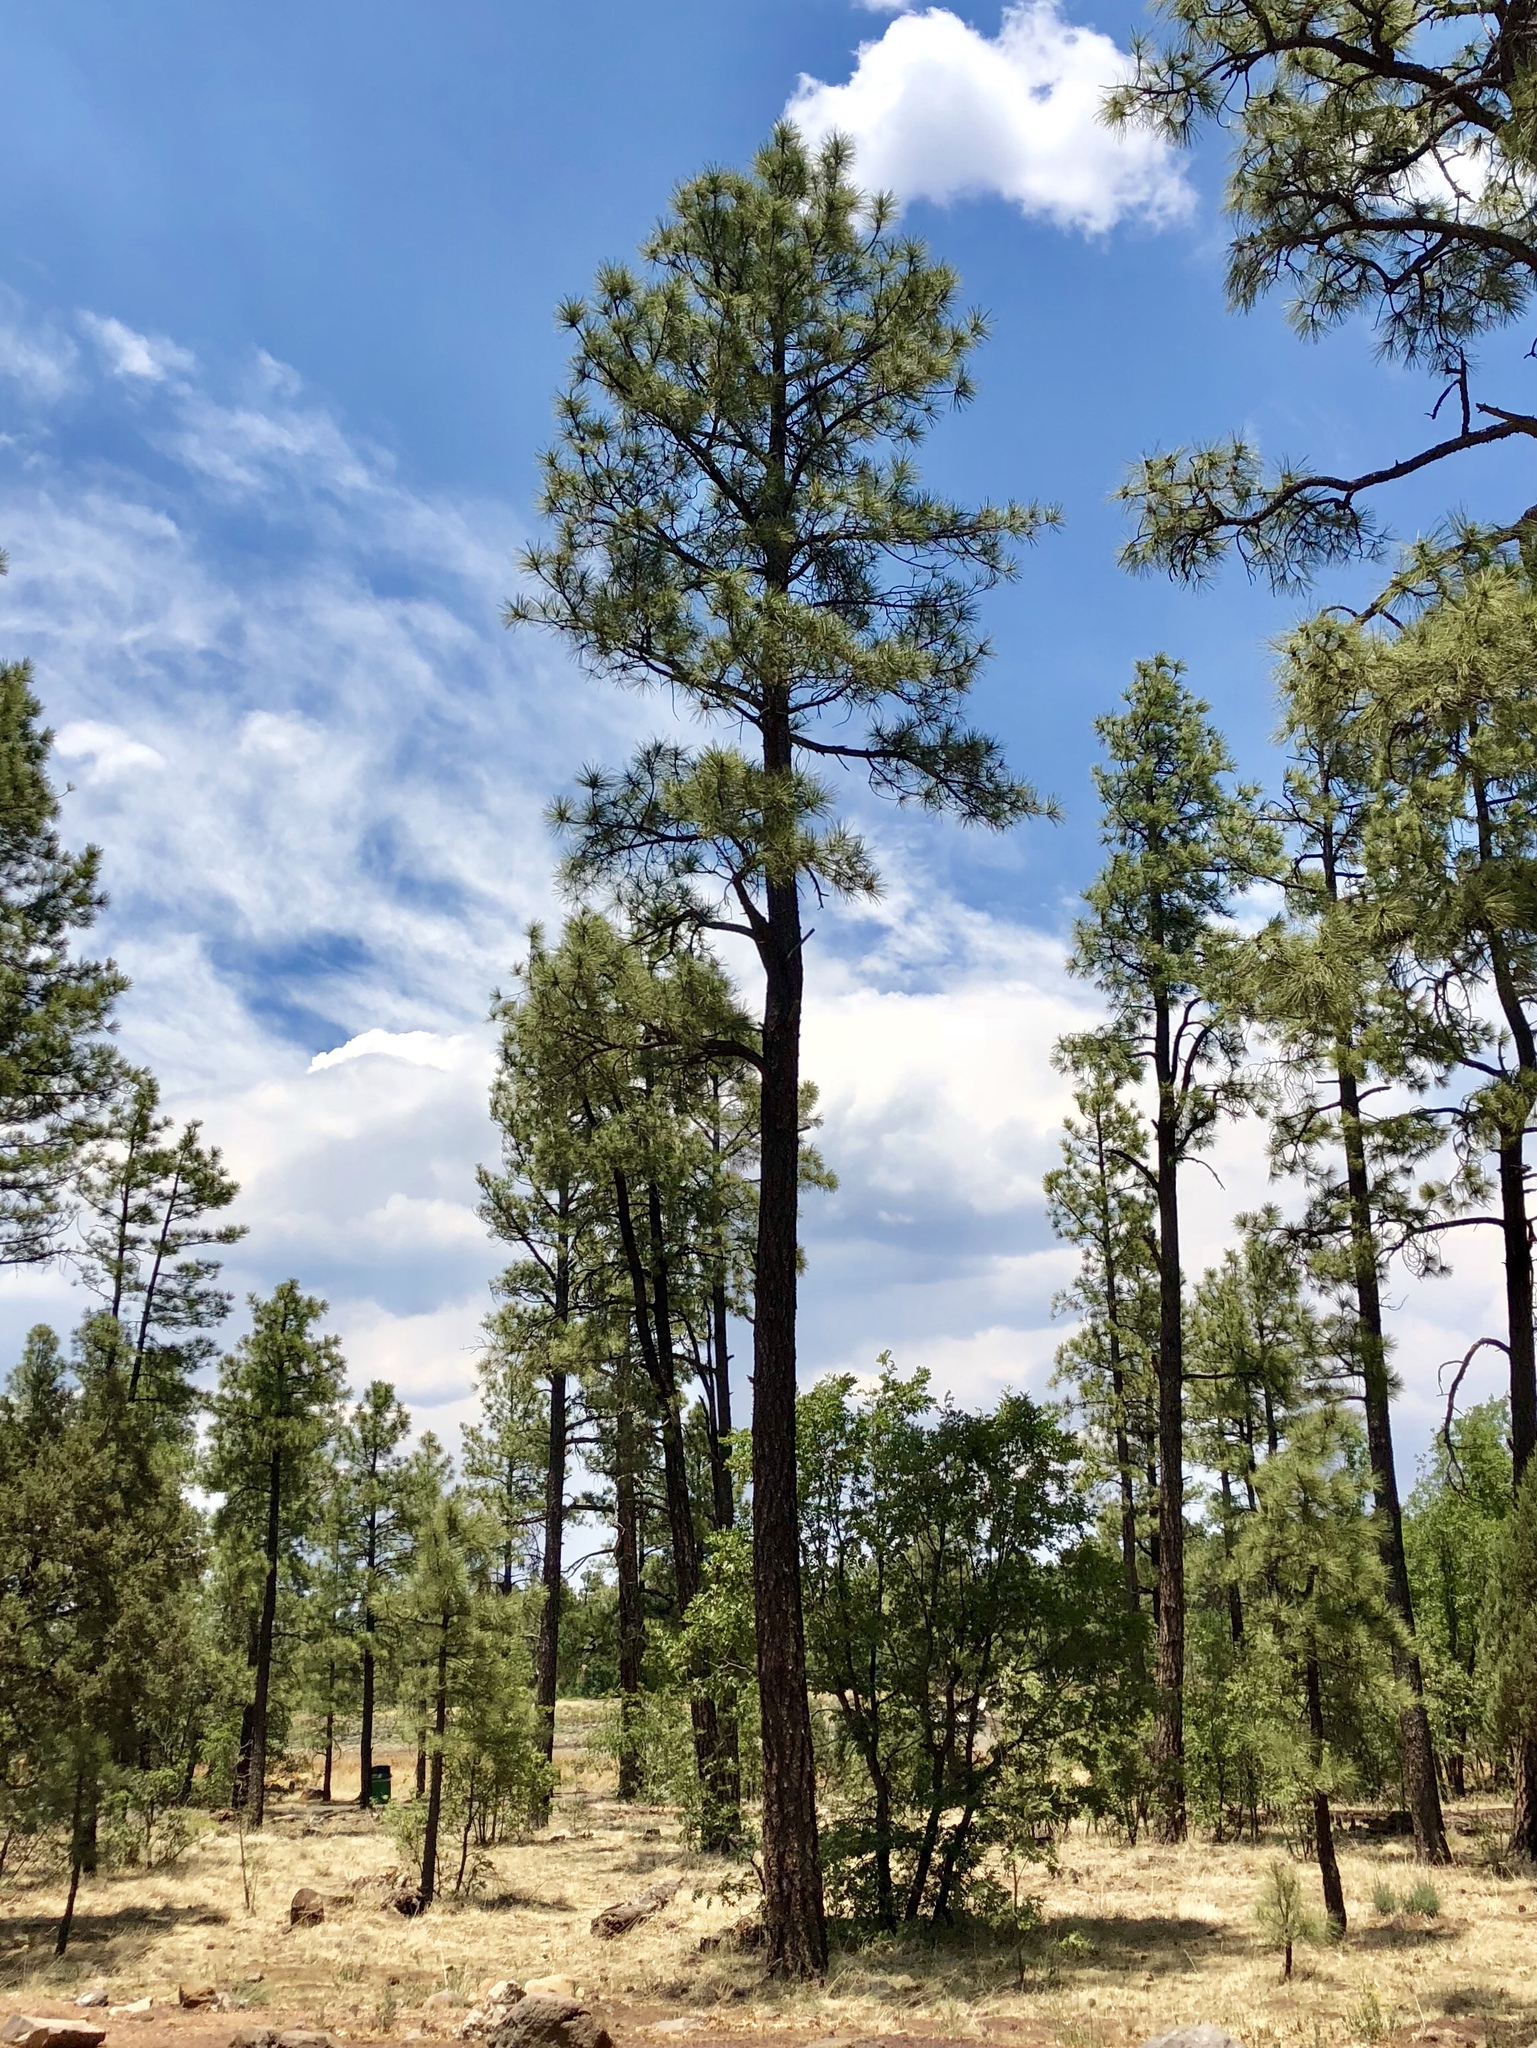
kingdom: Plantae
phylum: Tracheophyta
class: Pinopsida
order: Pinales
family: Pinaceae
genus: Pinus
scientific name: Pinus ponderosa
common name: Western yellow-pine
